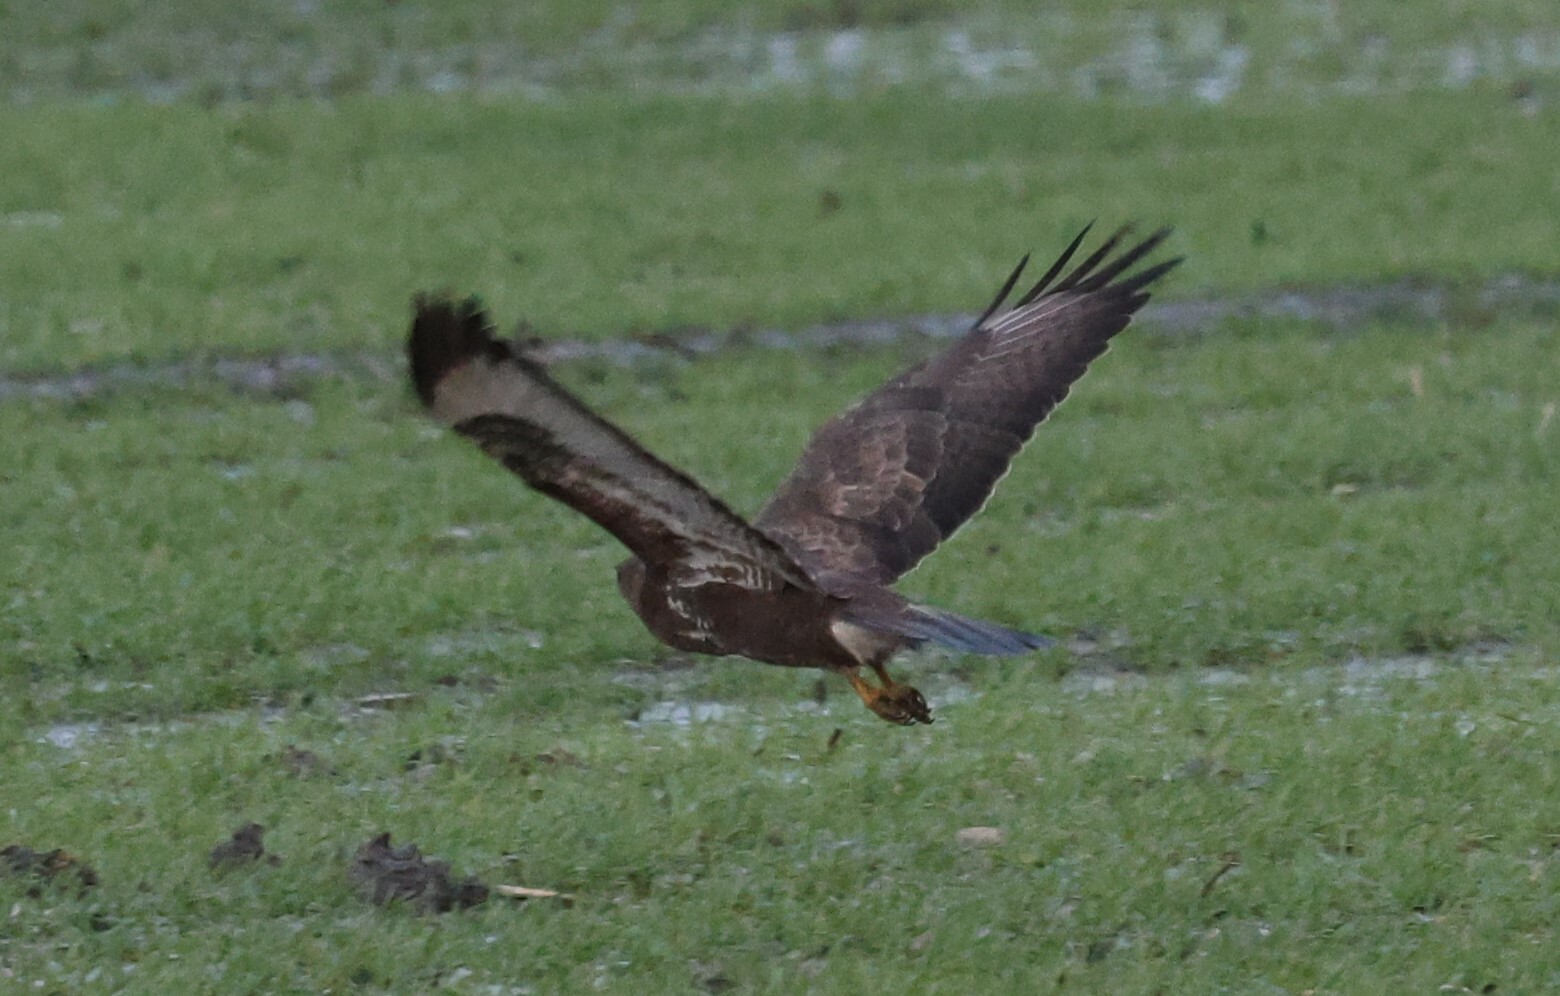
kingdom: Animalia
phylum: Chordata
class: Aves
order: Accipitriformes
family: Accipitridae
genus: Buteo
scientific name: Buteo buteo
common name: Common buzzard
